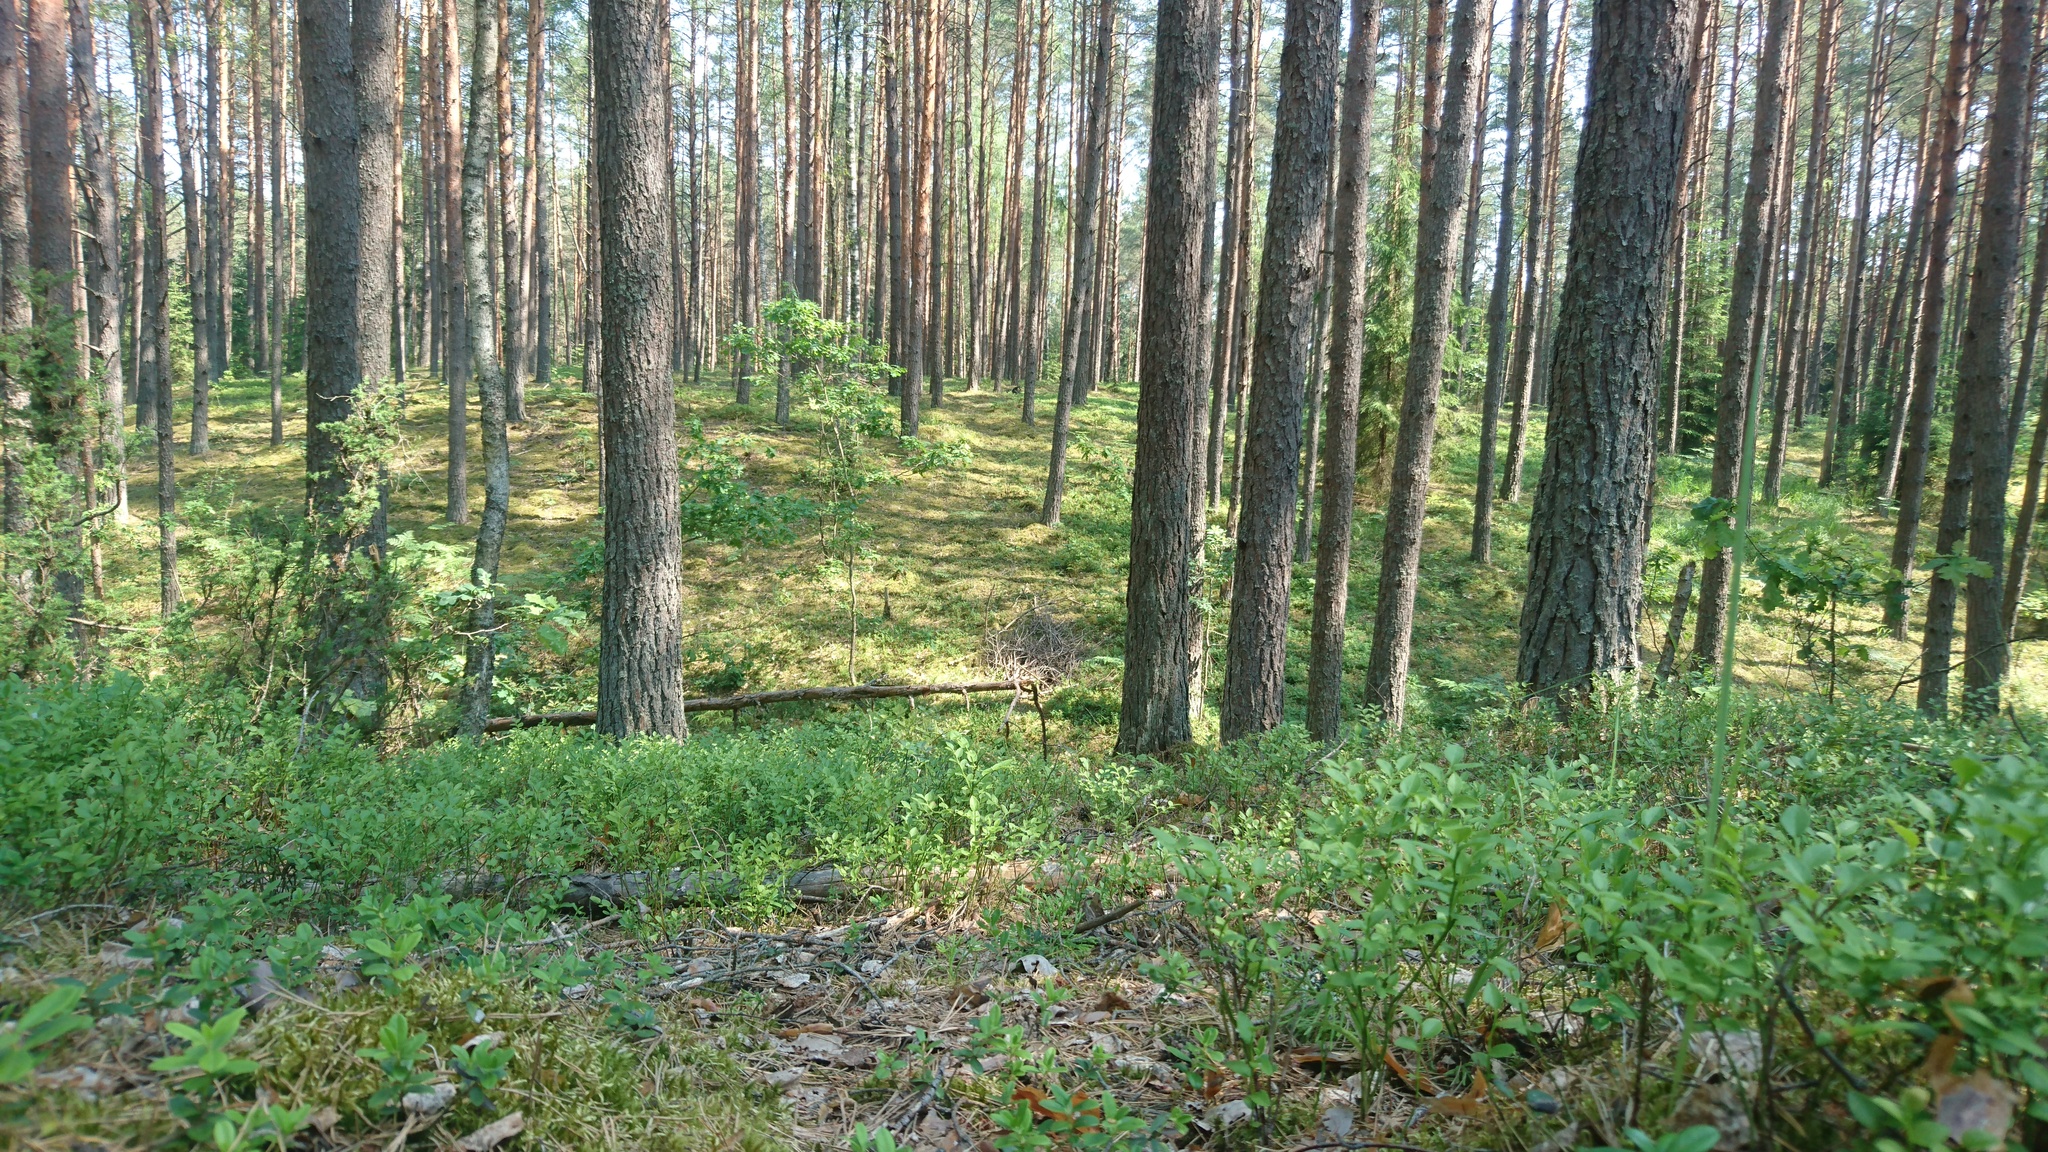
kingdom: Plantae
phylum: Tracheophyta
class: Pinopsida
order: Pinales
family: Pinaceae
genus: Pinus
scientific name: Pinus sylvestris
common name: Scots pine
